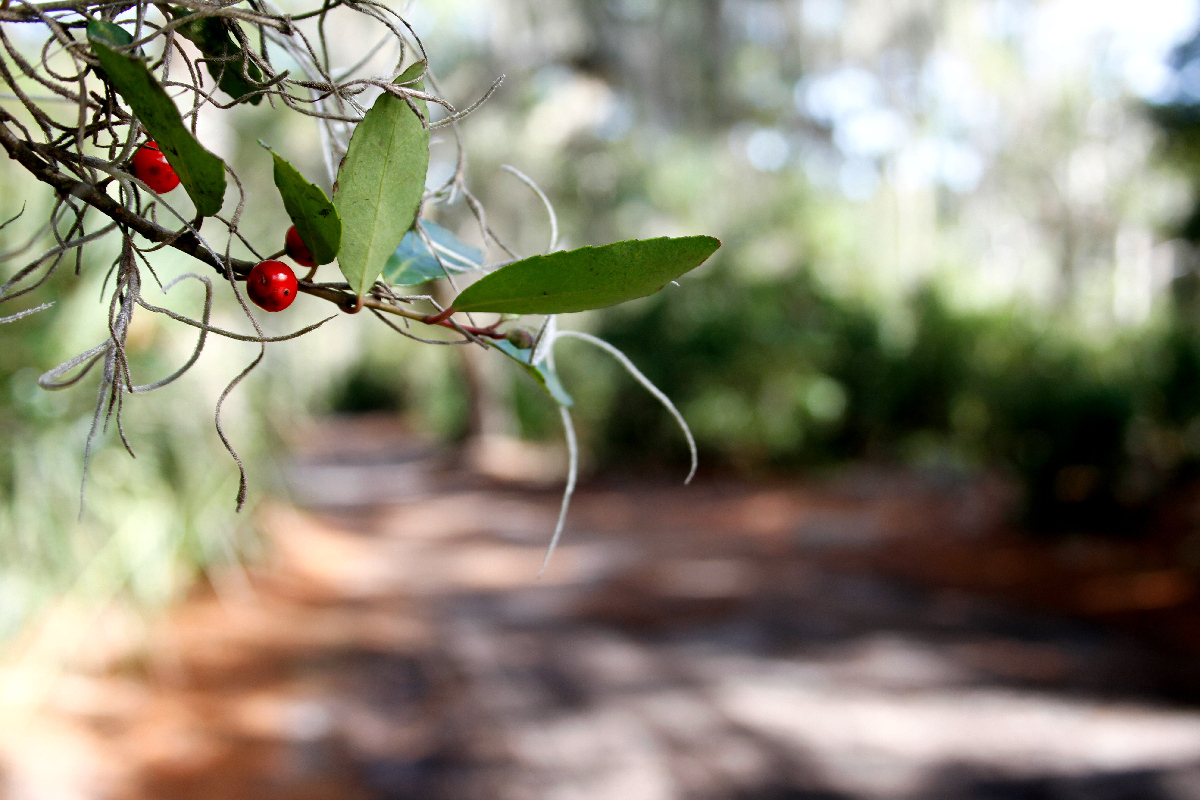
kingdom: Plantae
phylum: Tracheophyta
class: Magnoliopsida
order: Aquifoliales
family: Aquifoliaceae
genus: Ilex
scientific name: Ilex vomitoria
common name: Yaupon holly
